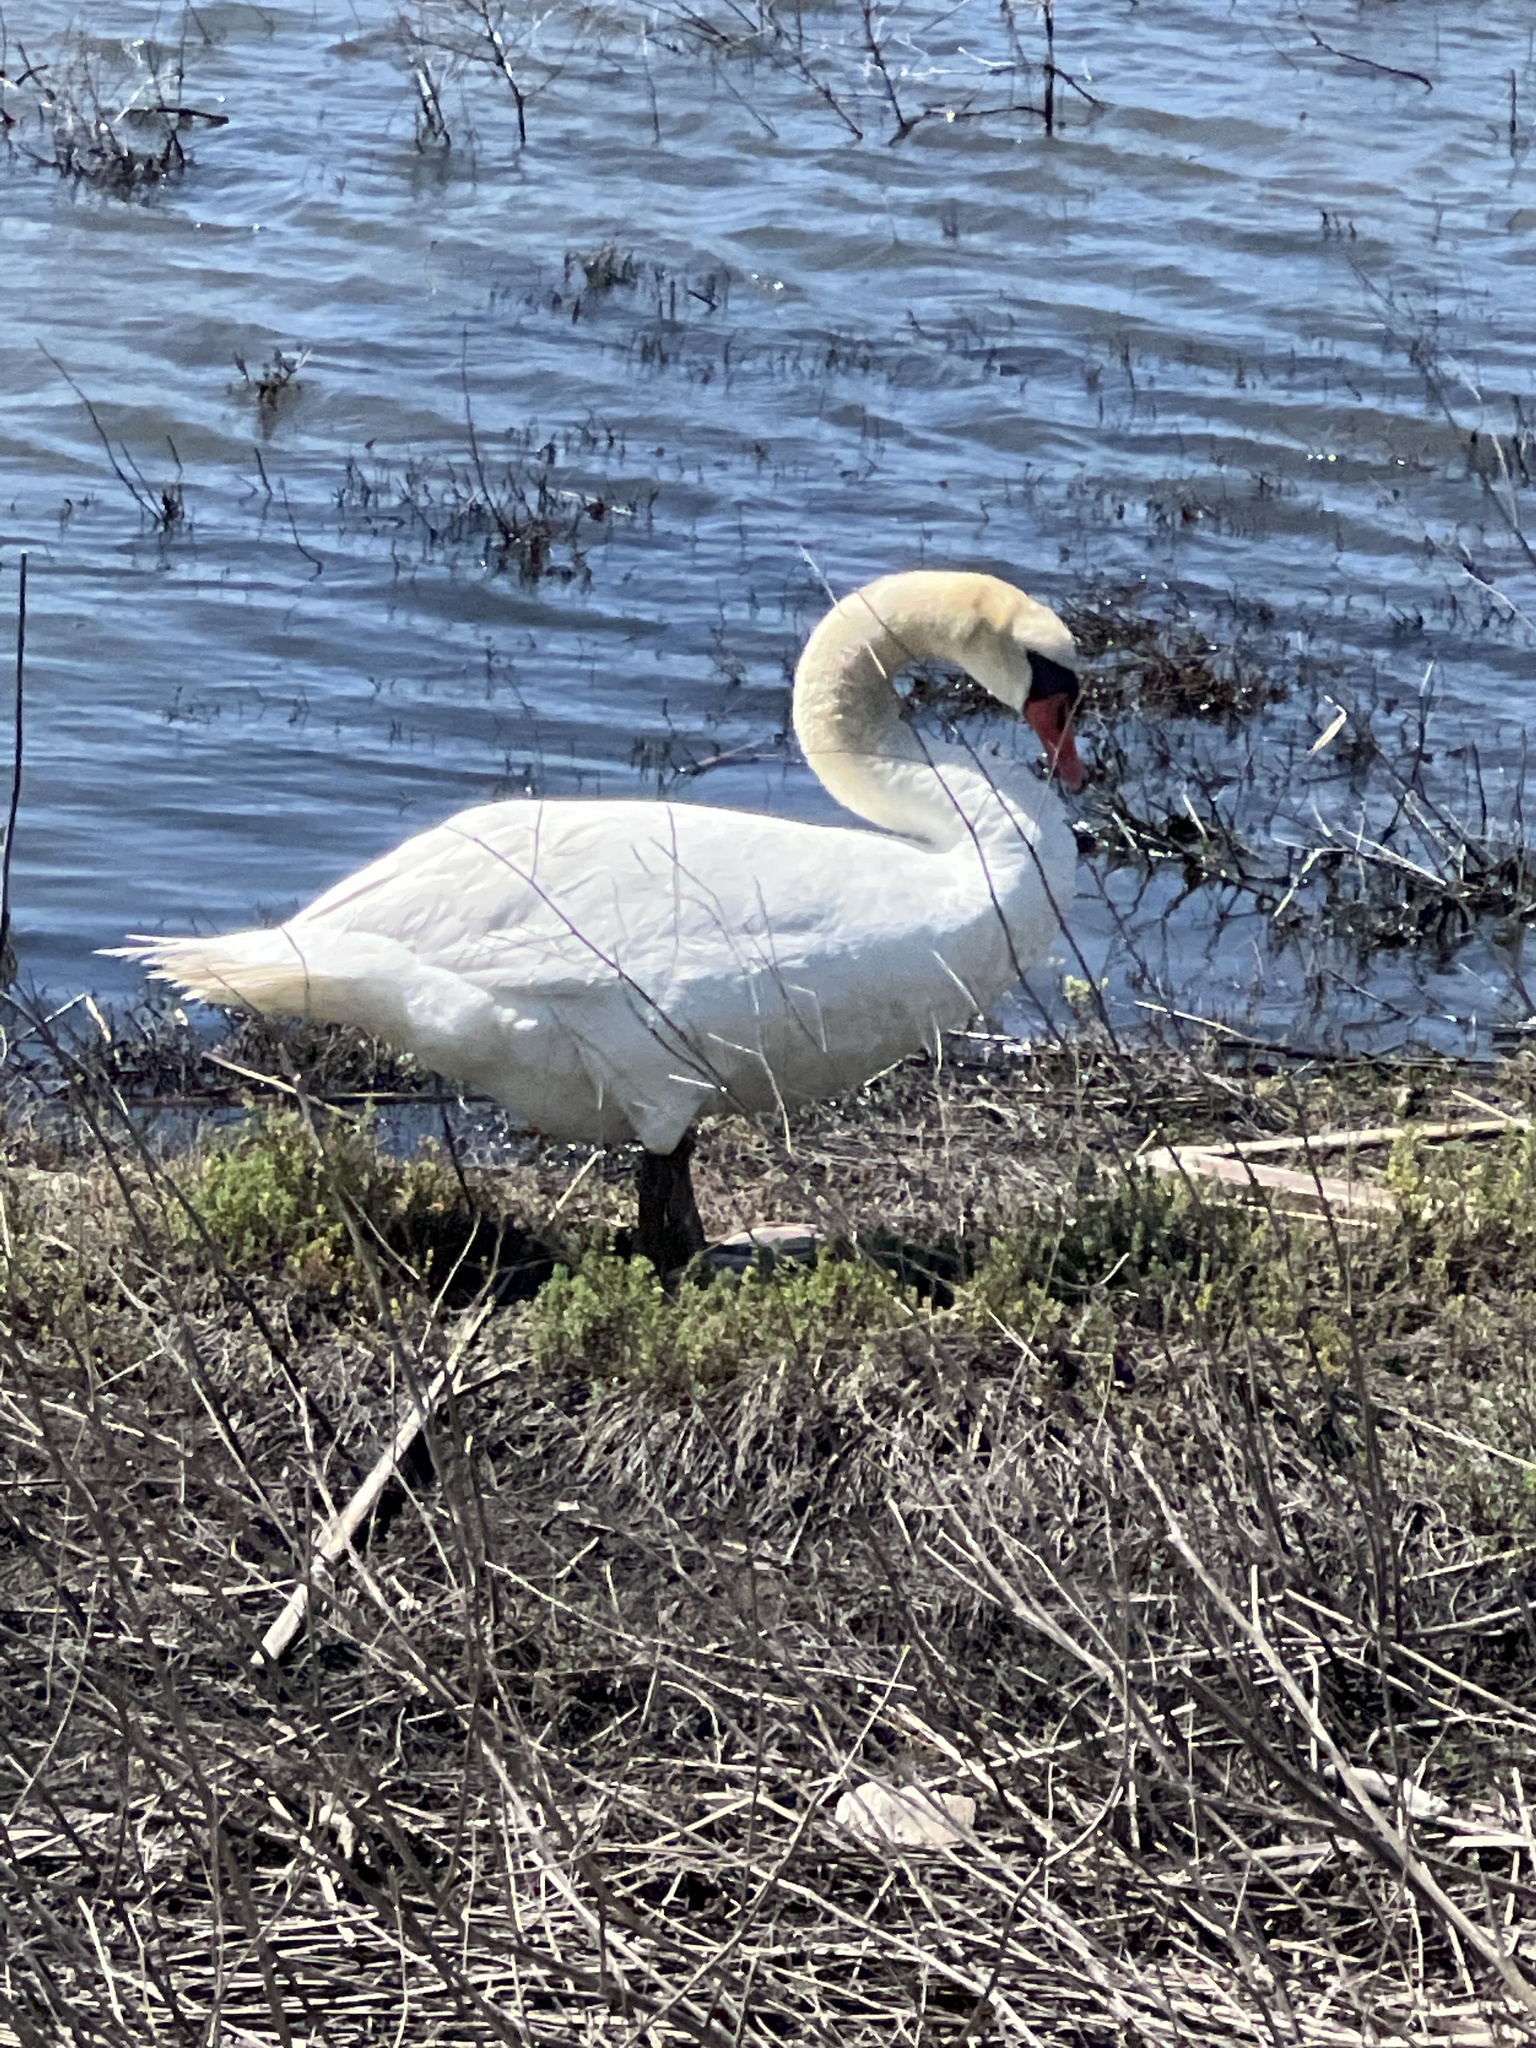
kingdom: Animalia
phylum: Chordata
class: Aves
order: Anseriformes
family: Anatidae
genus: Cygnus
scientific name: Cygnus olor
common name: Mute swan
